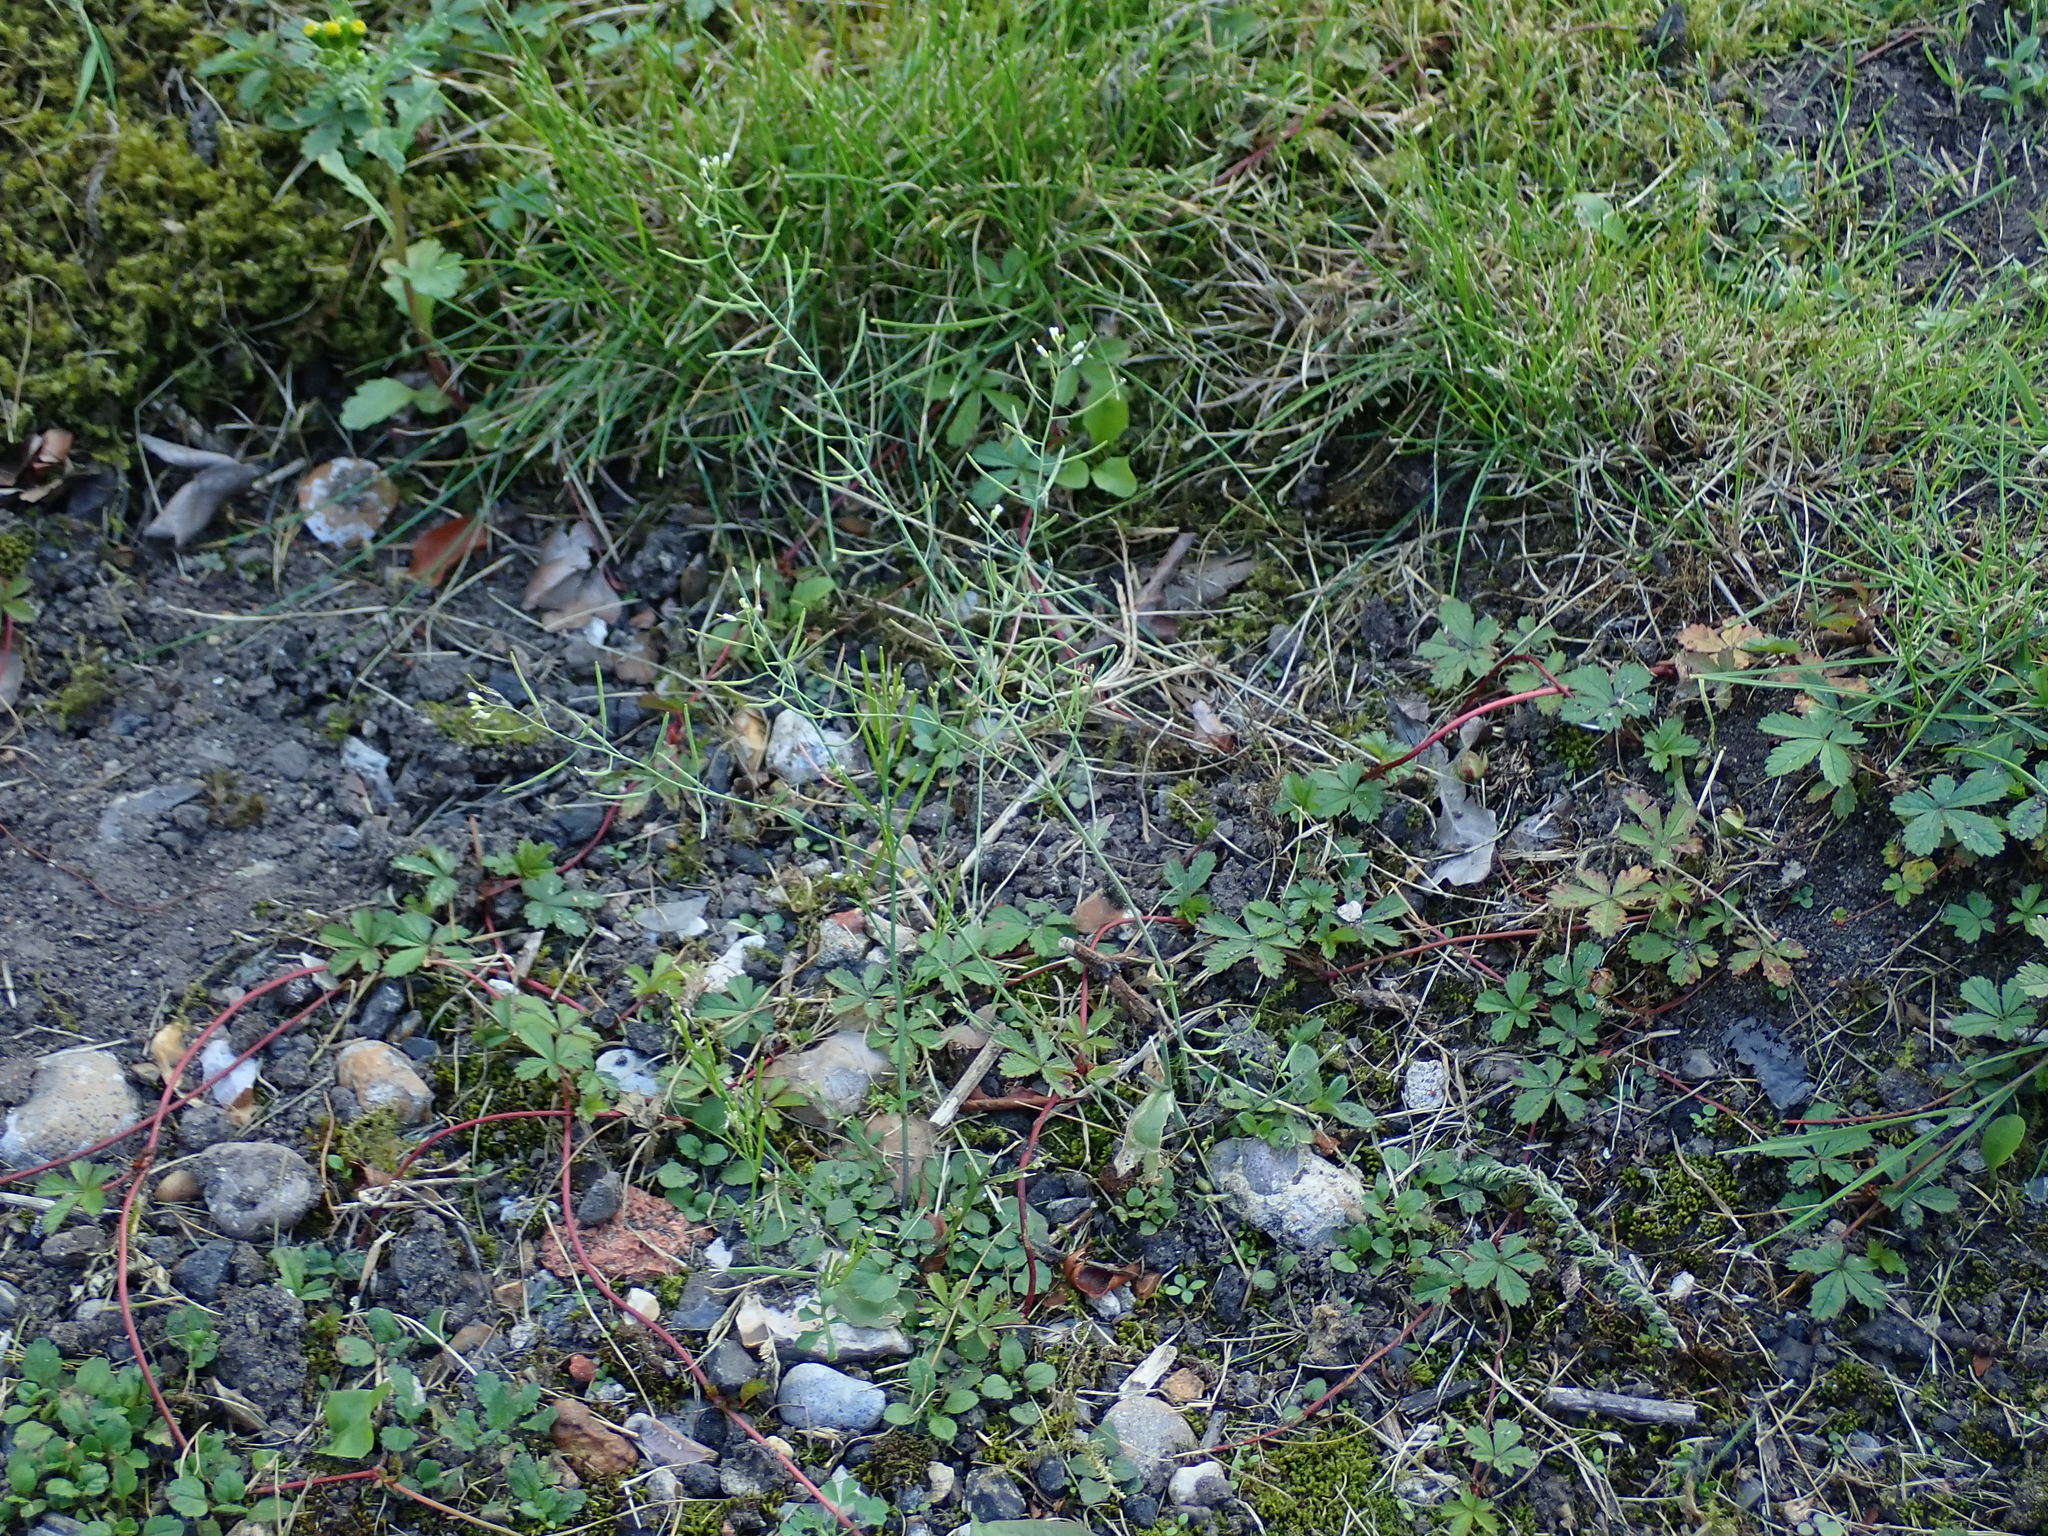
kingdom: Plantae
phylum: Tracheophyta
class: Magnoliopsida
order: Brassicales
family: Brassicaceae
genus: Arabidopsis
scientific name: Arabidopsis thaliana
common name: Thale cress
